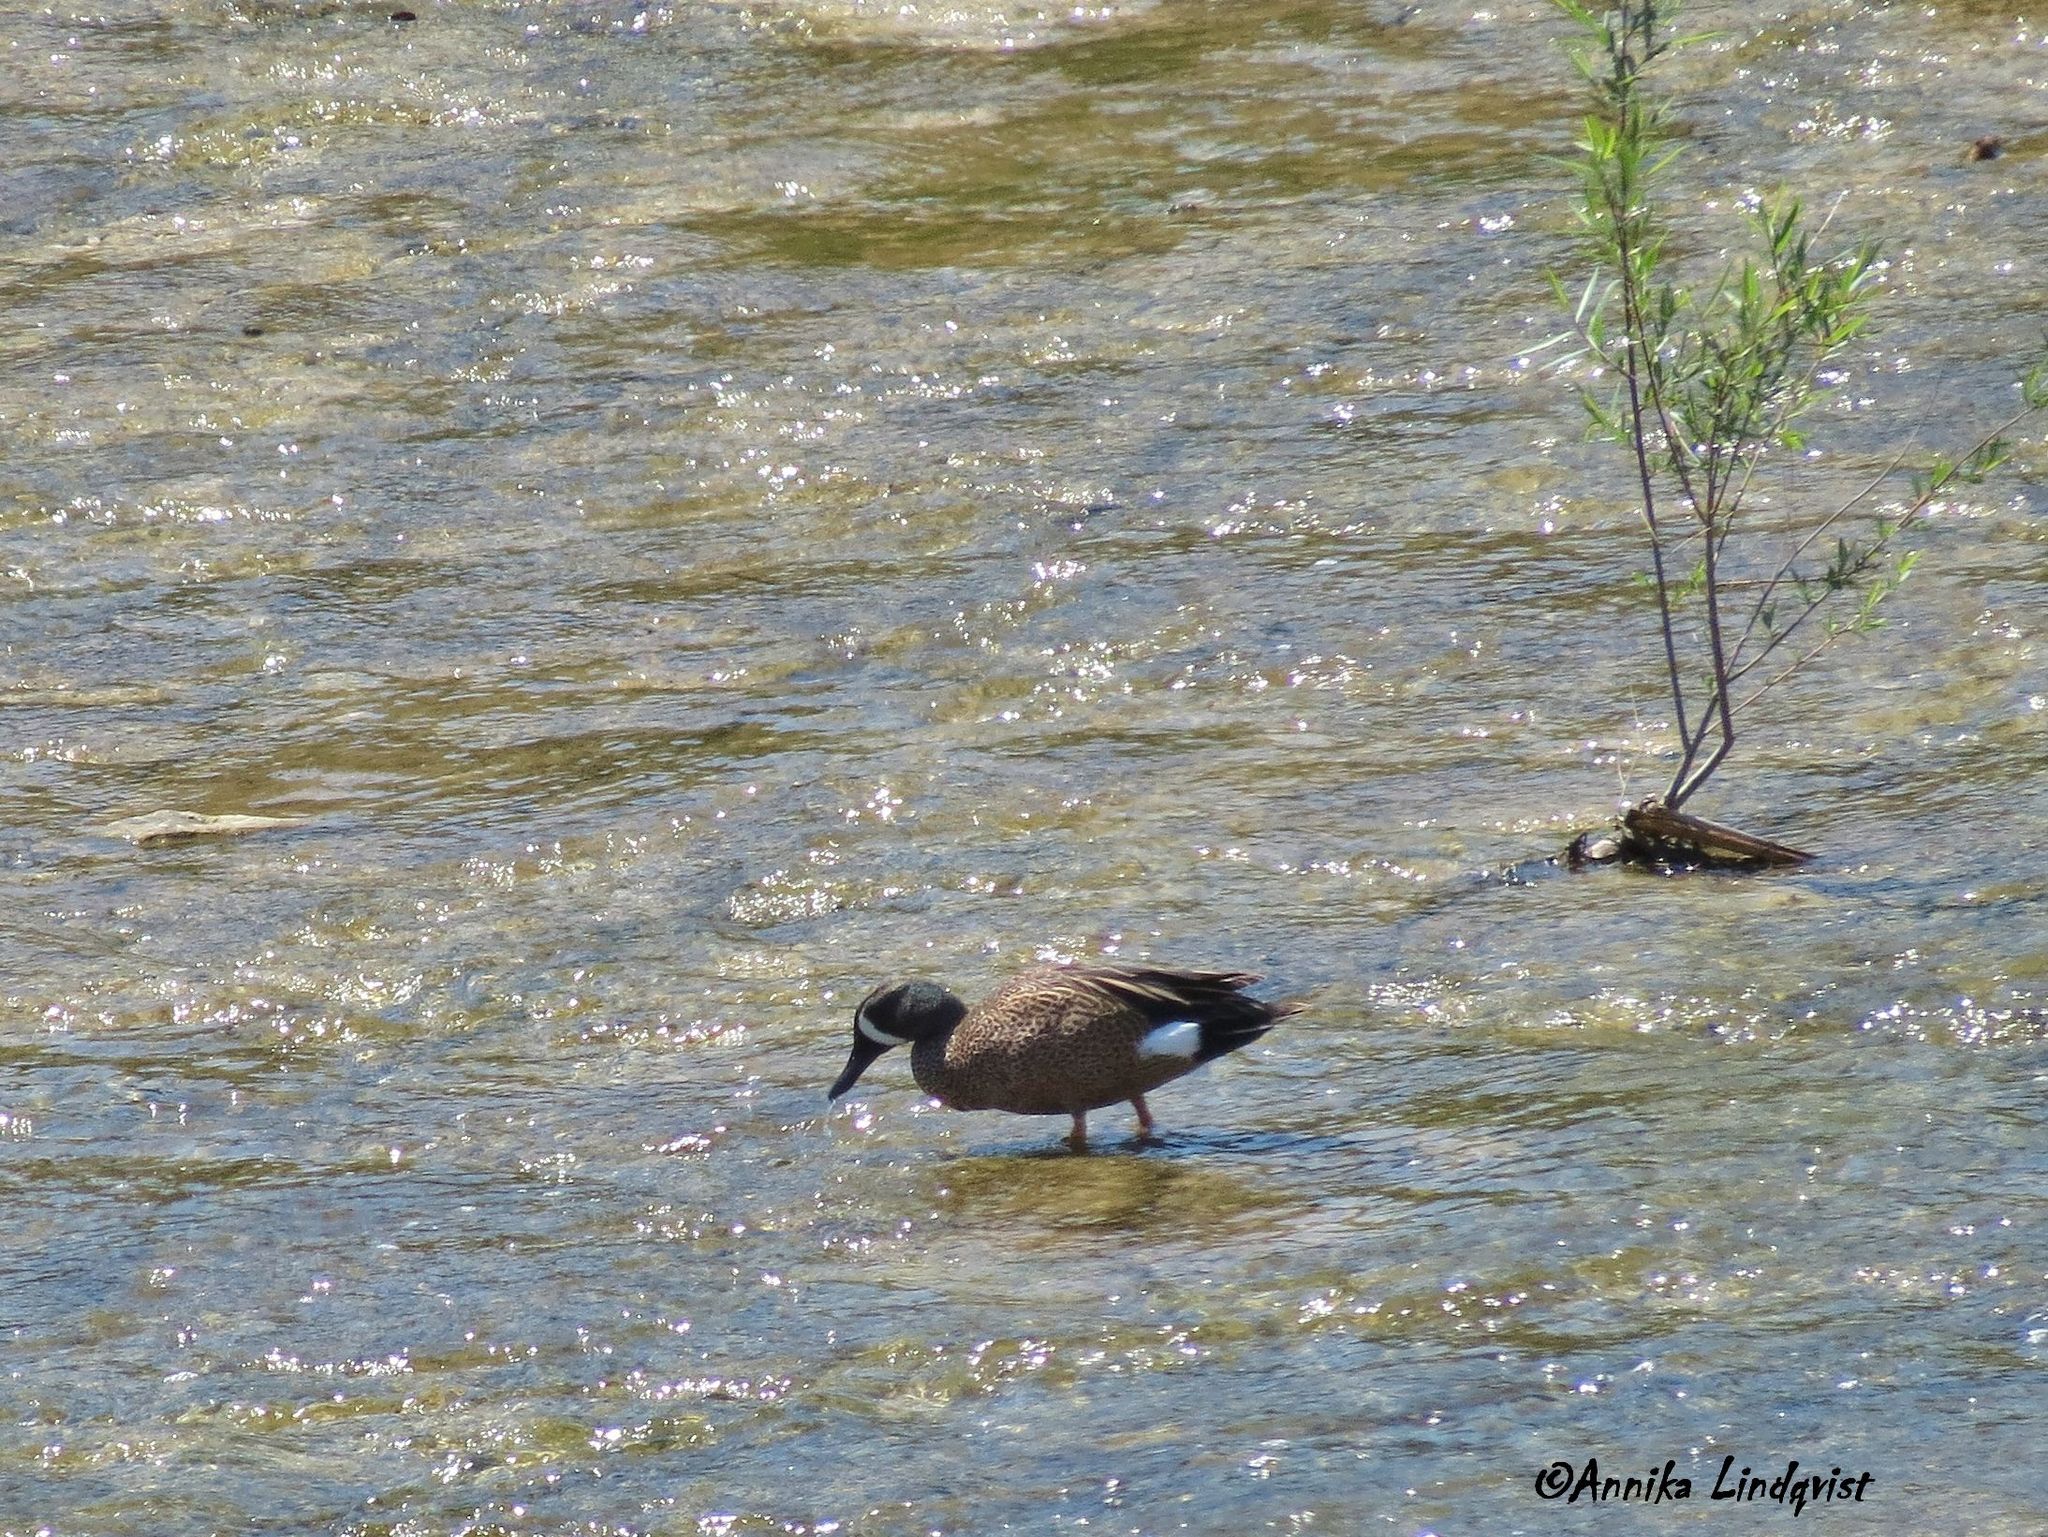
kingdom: Animalia
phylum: Chordata
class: Aves
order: Anseriformes
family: Anatidae
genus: Spatula
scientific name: Spatula discors
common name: Blue-winged teal
